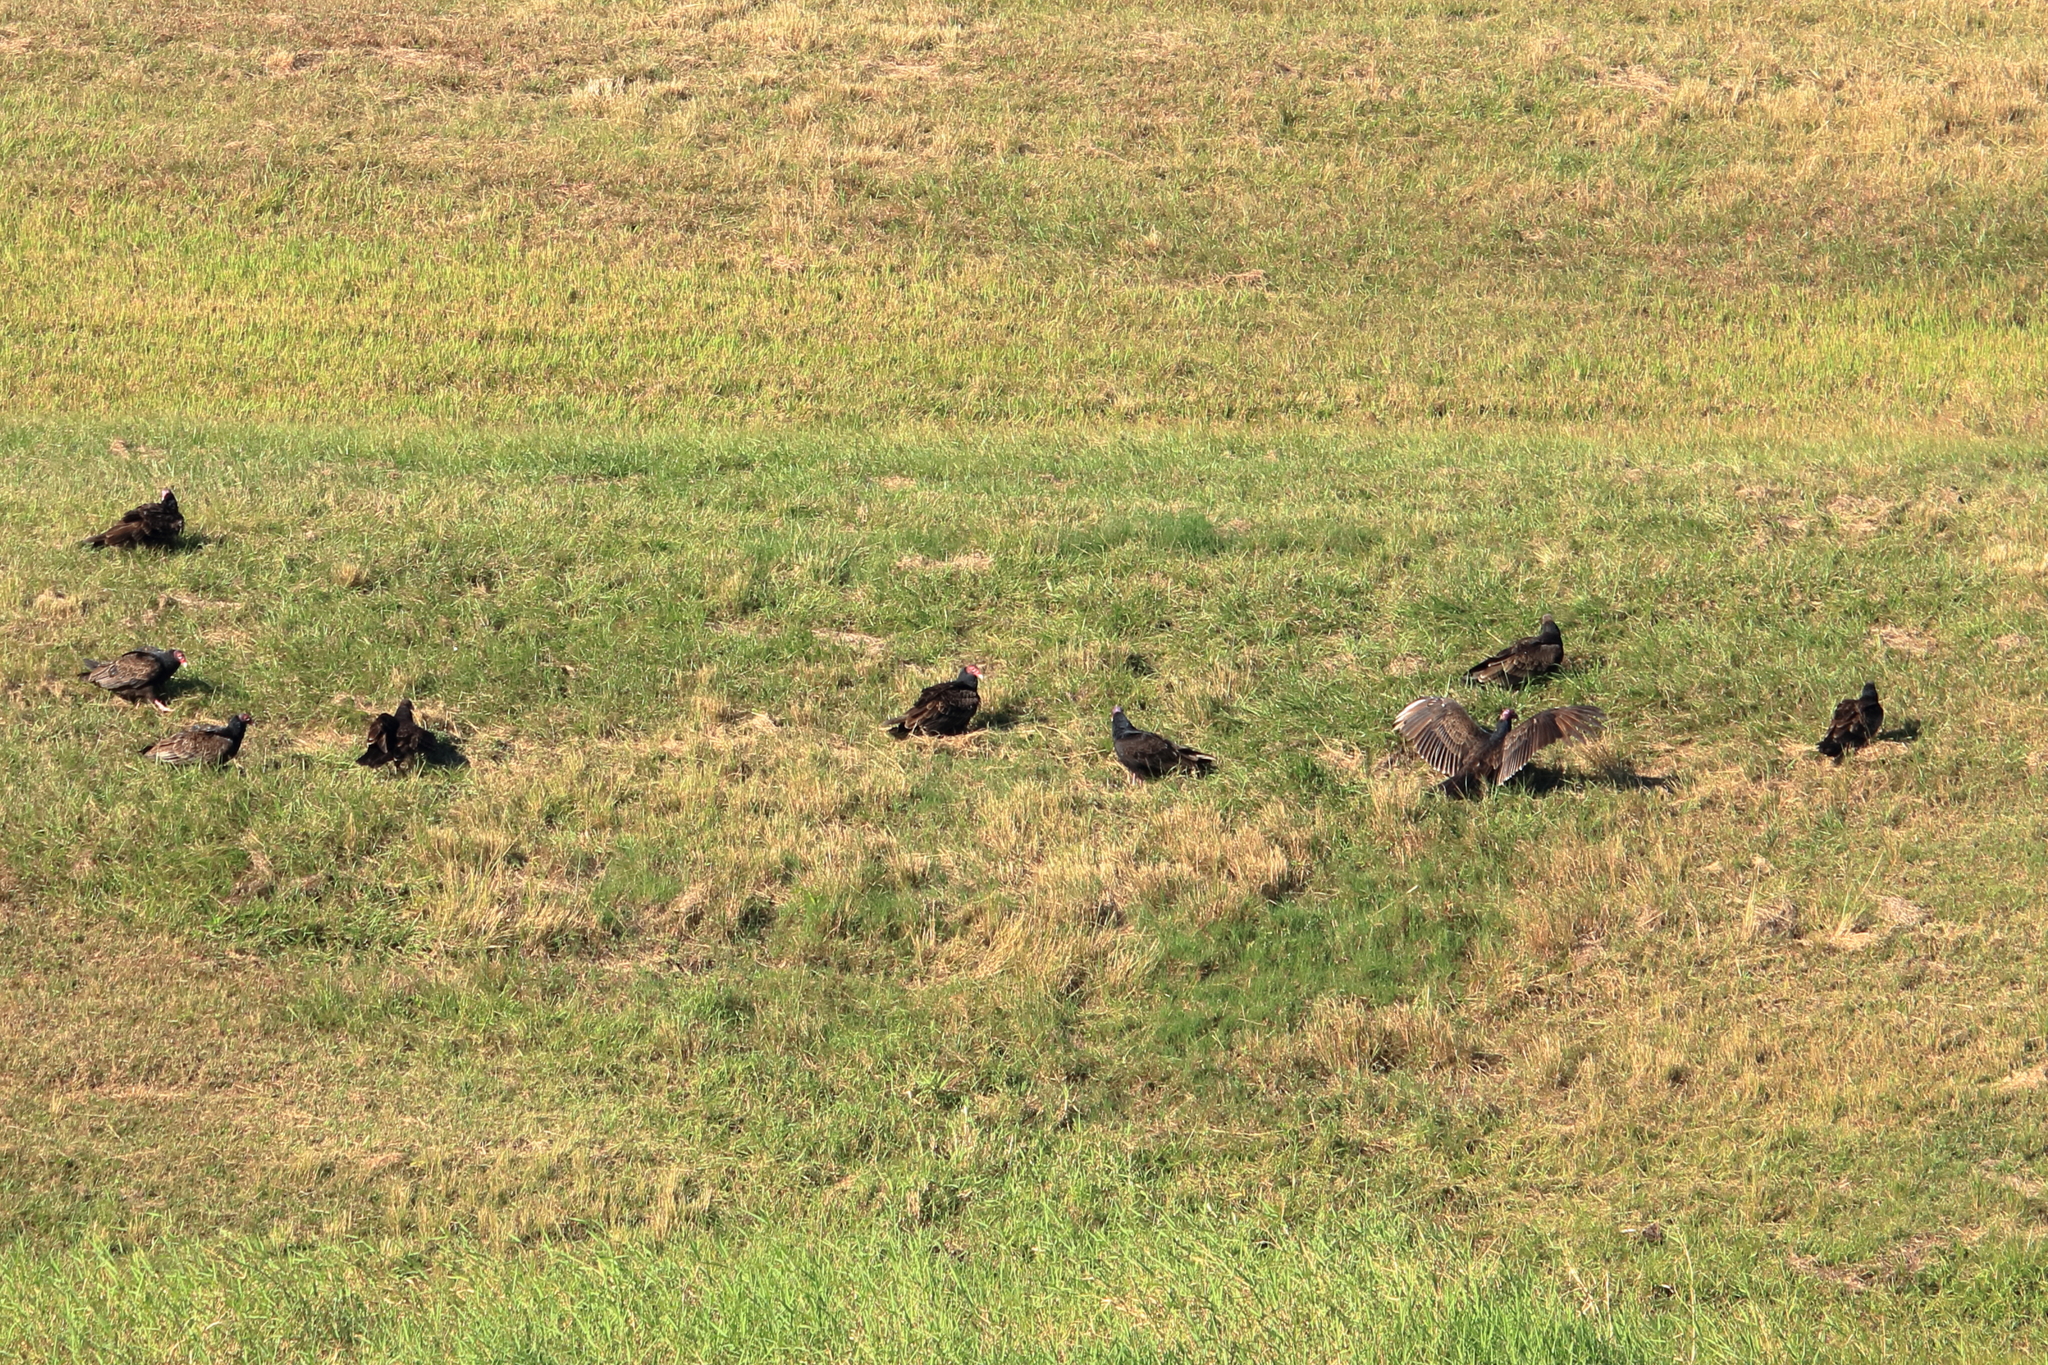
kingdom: Animalia
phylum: Chordata
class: Aves
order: Accipitriformes
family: Cathartidae
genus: Cathartes
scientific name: Cathartes aura
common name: Turkey vulture
